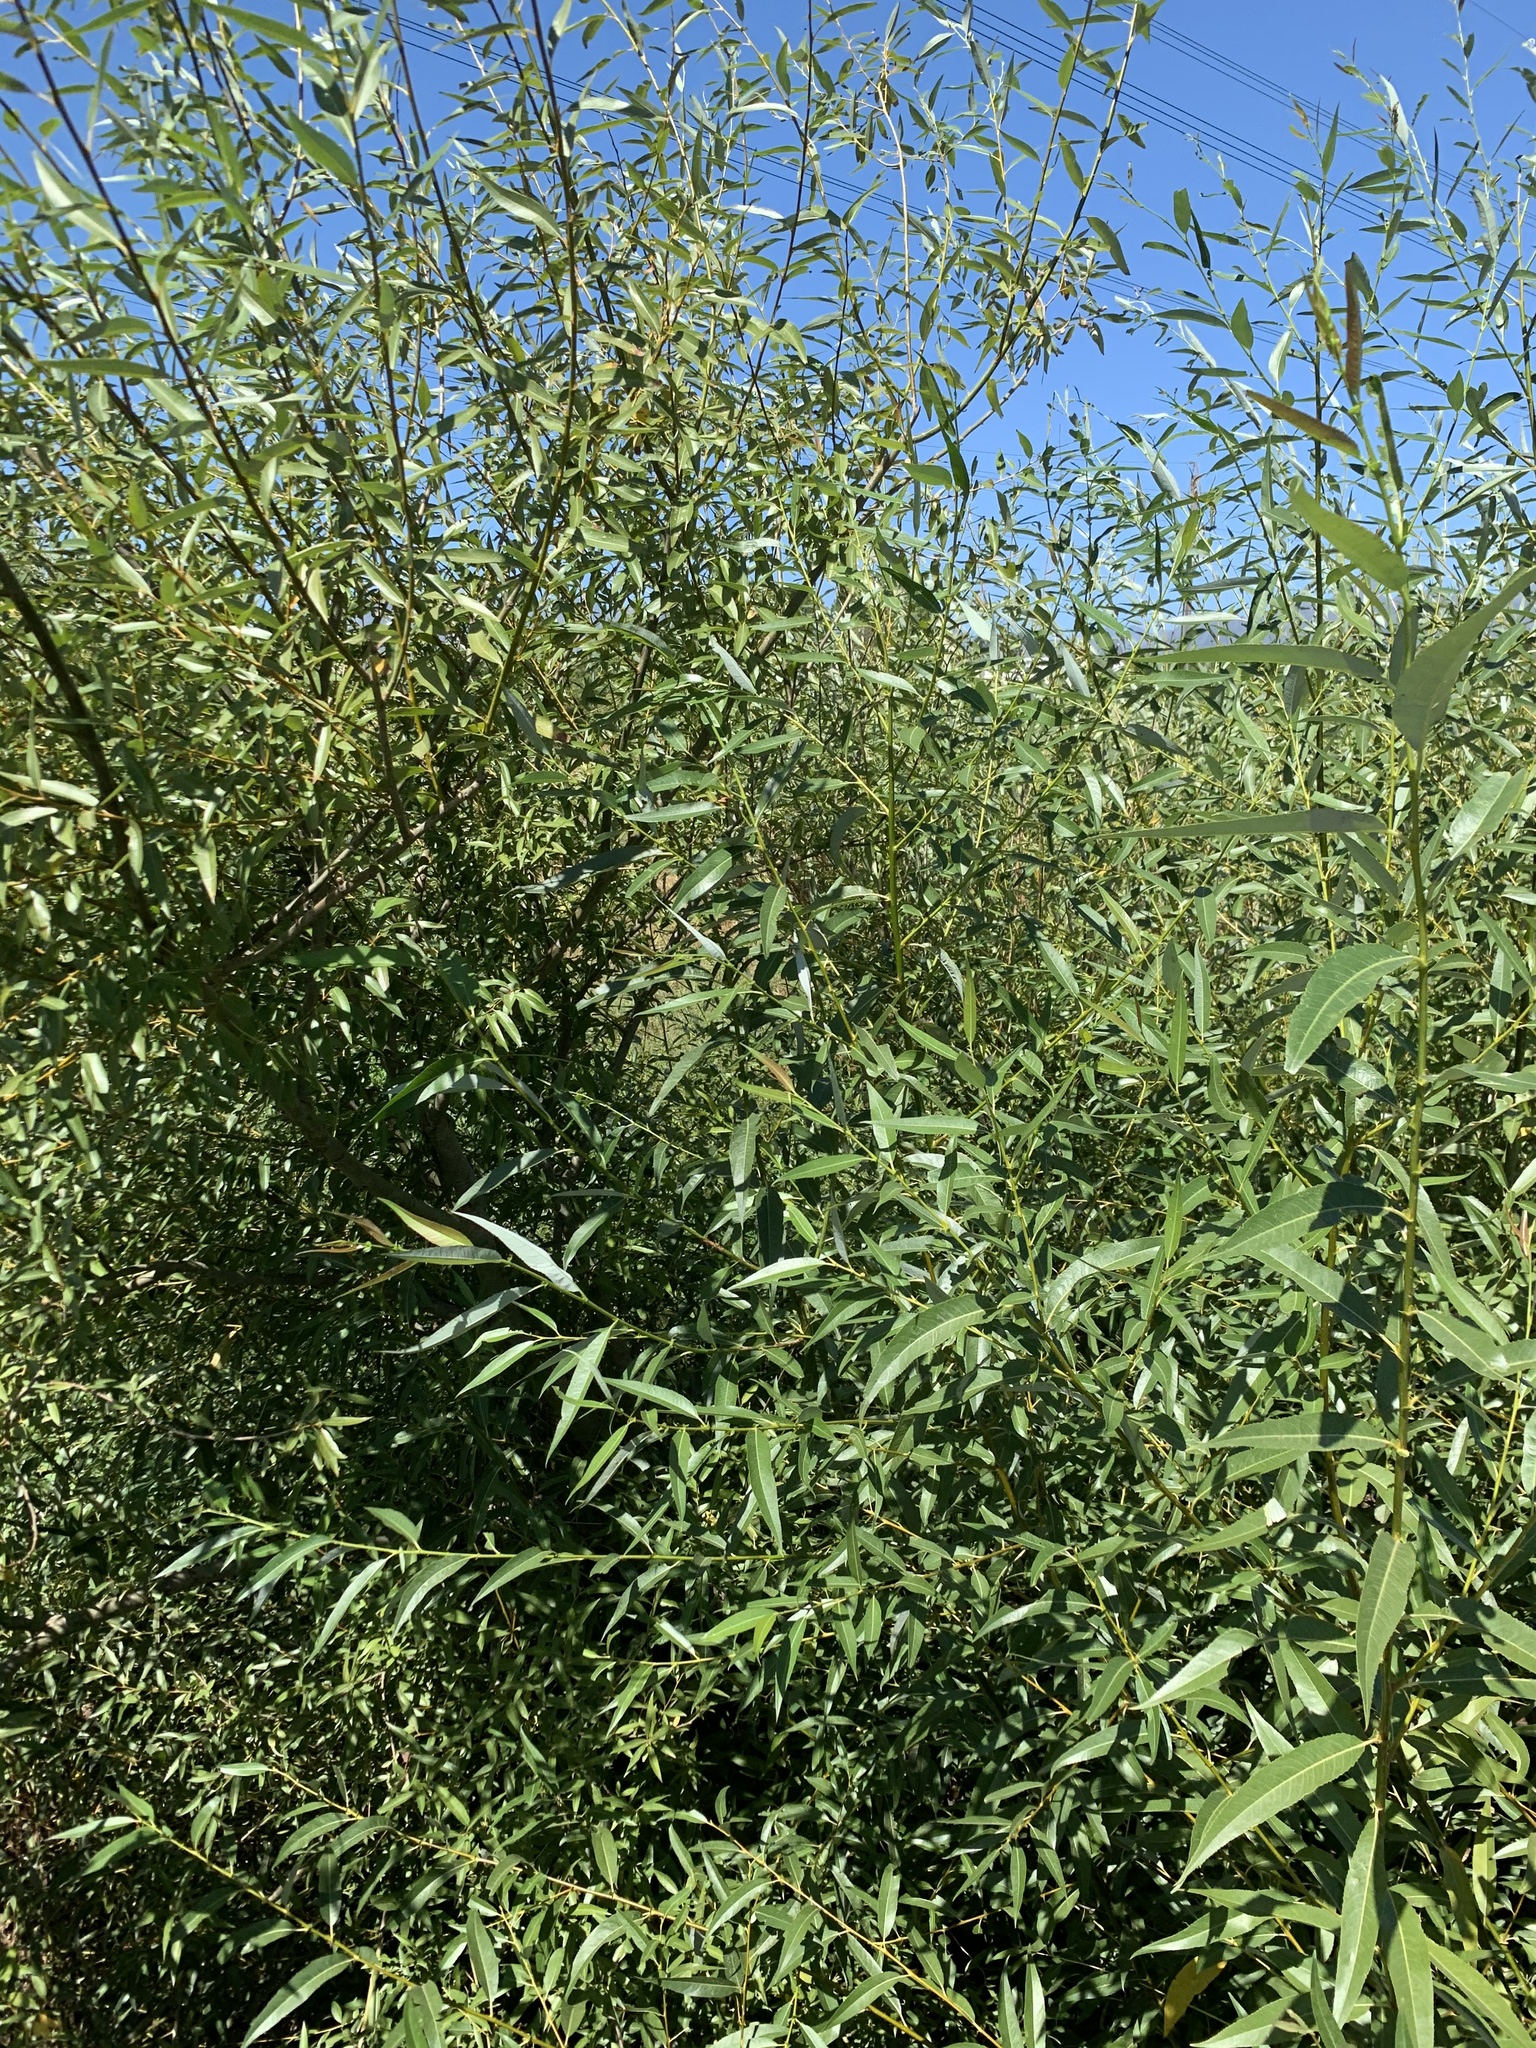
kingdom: Plantae
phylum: Tracheophyta
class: Magnoliopsida
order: Malpighiales
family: Salicaceae
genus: Salix
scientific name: Salix mucronata
